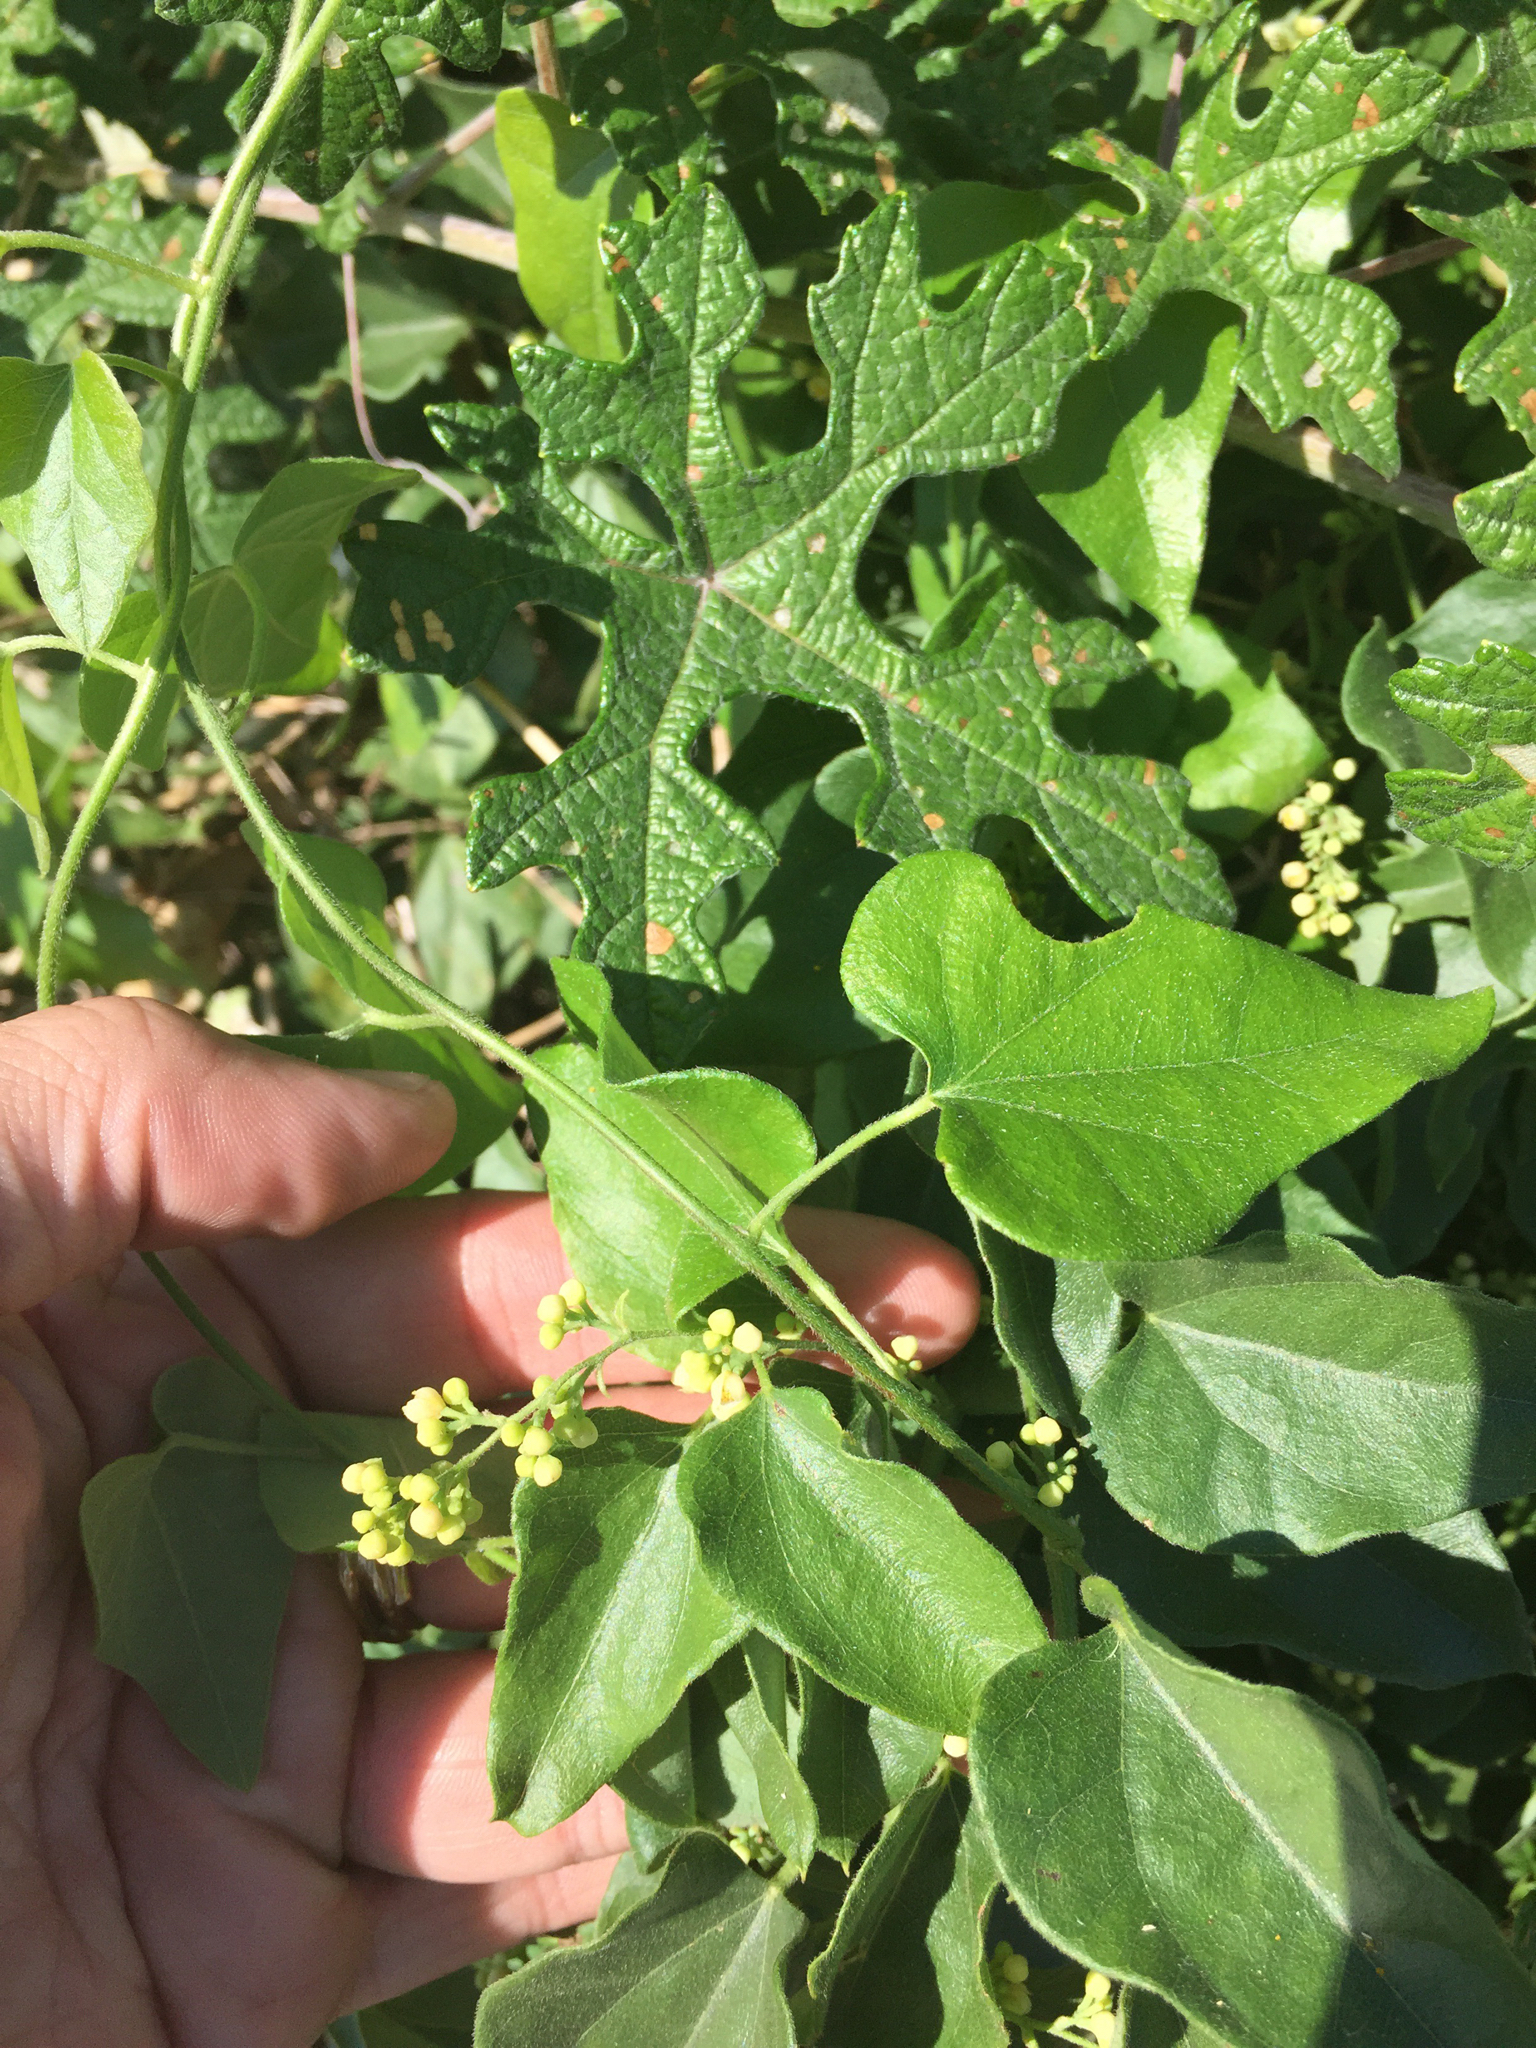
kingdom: Plantae
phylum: Tracheophyta
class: Magnoliopsida
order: Ranunculales
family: Menispermaceae
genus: Cocculus
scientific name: Cocculus carolinus
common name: Carolina moonseed
